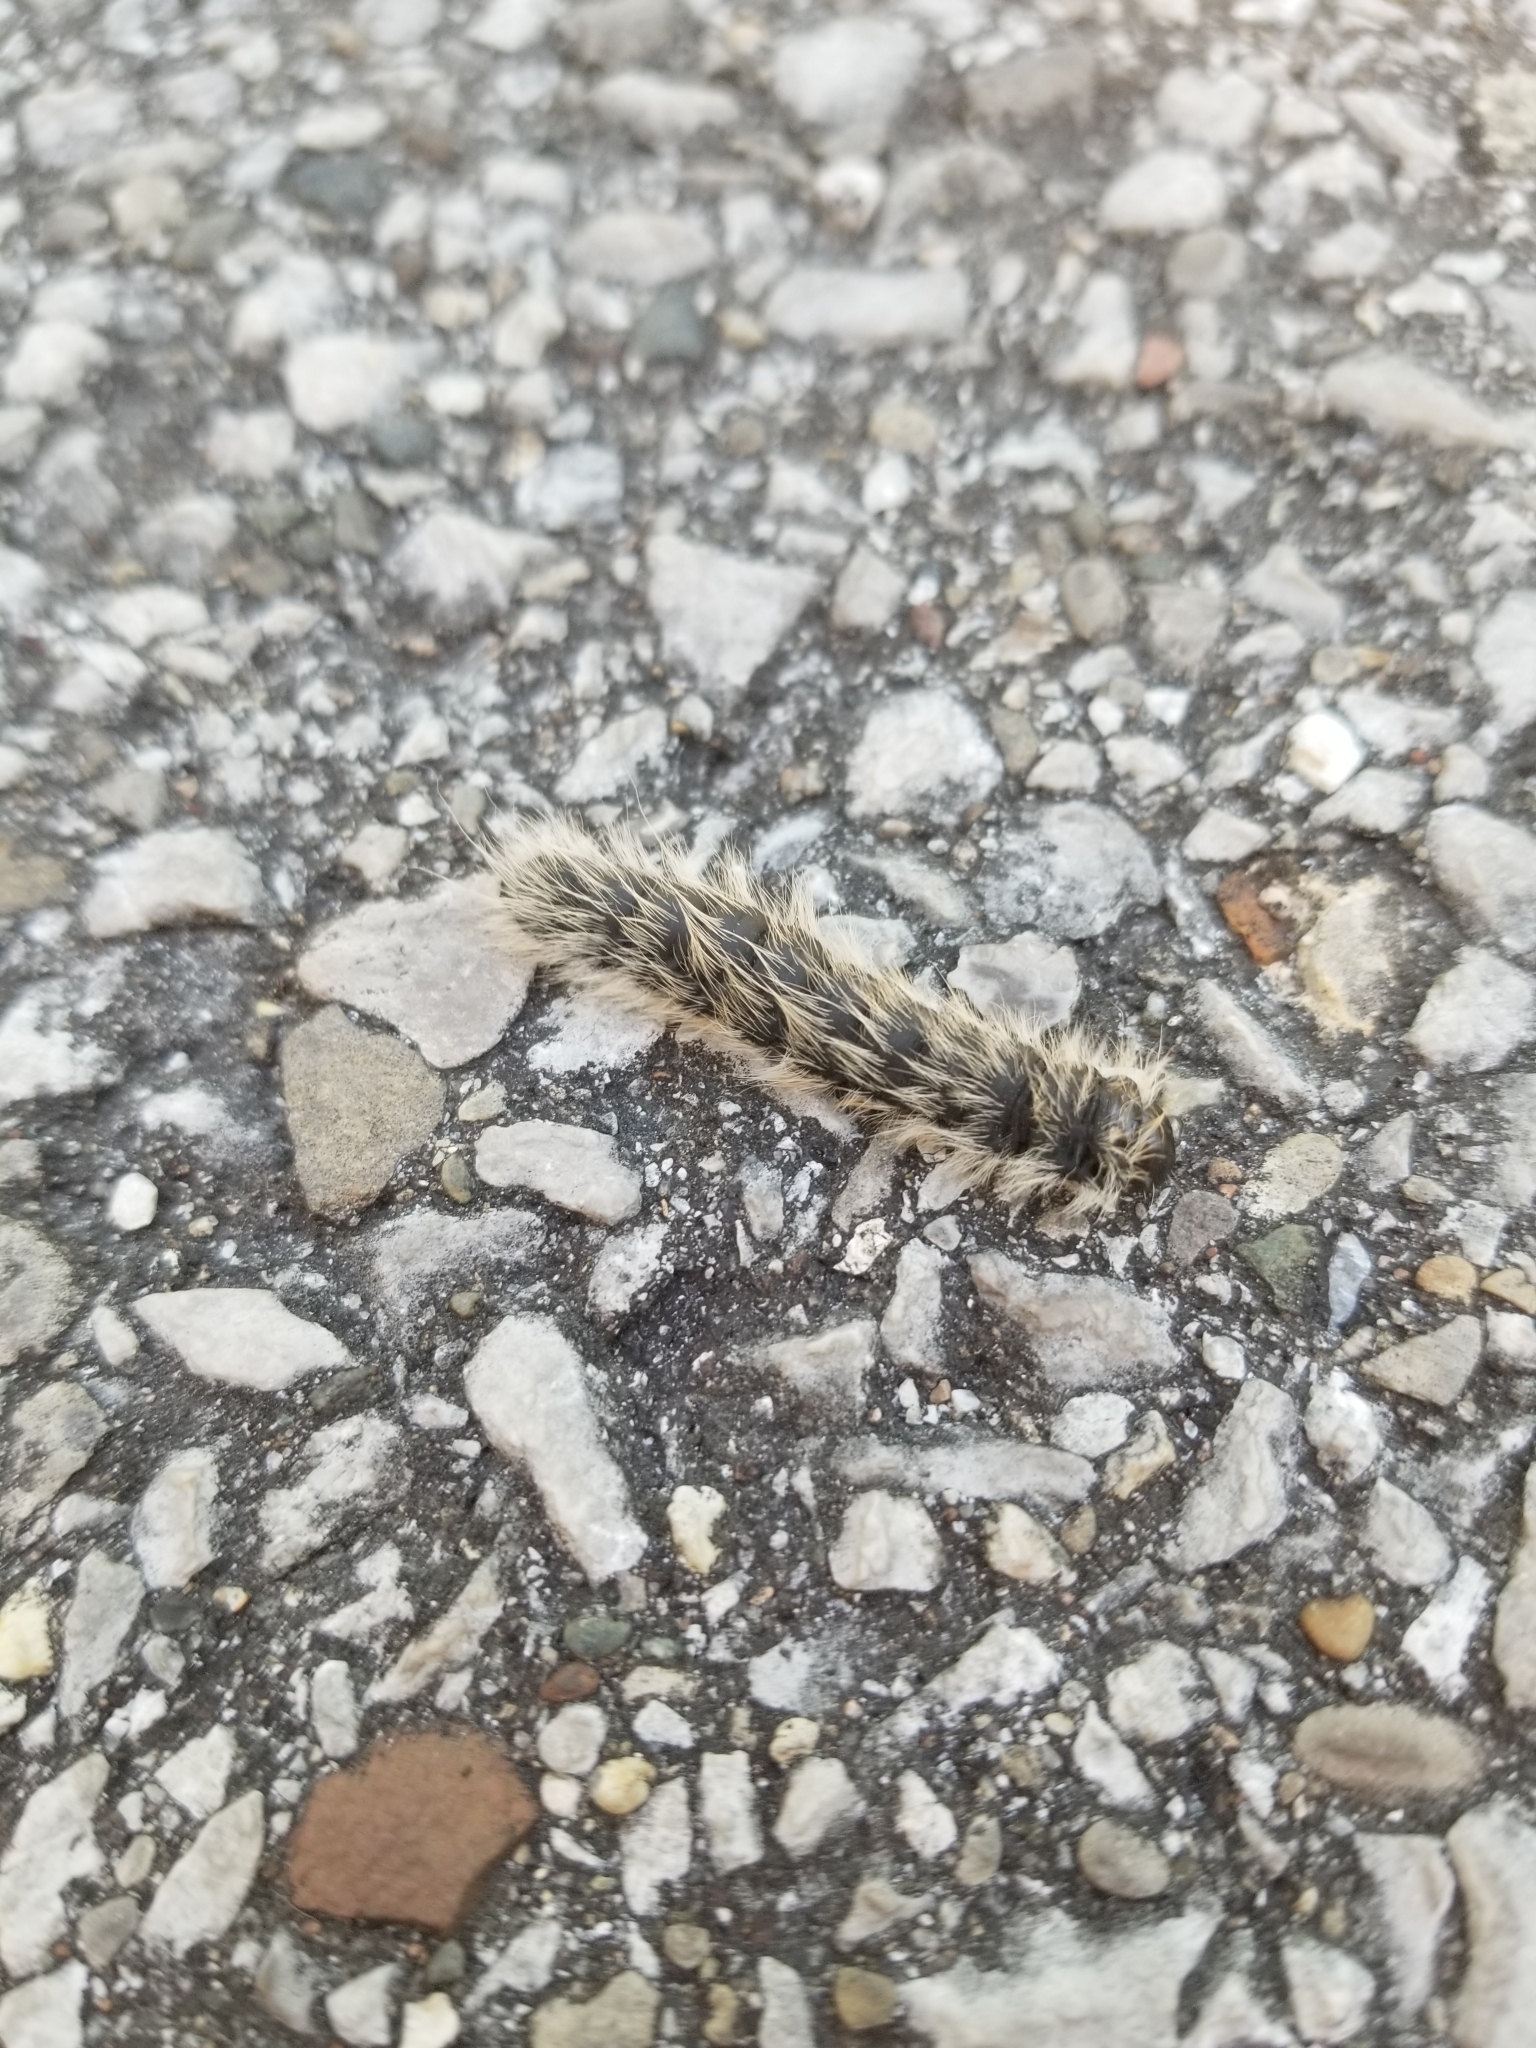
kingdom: Animalia
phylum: Arthropoda
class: Insecta
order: Lepidoptera
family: Notodontidae
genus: Datana
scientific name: Datana integerrima
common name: Walnut caterpillar
